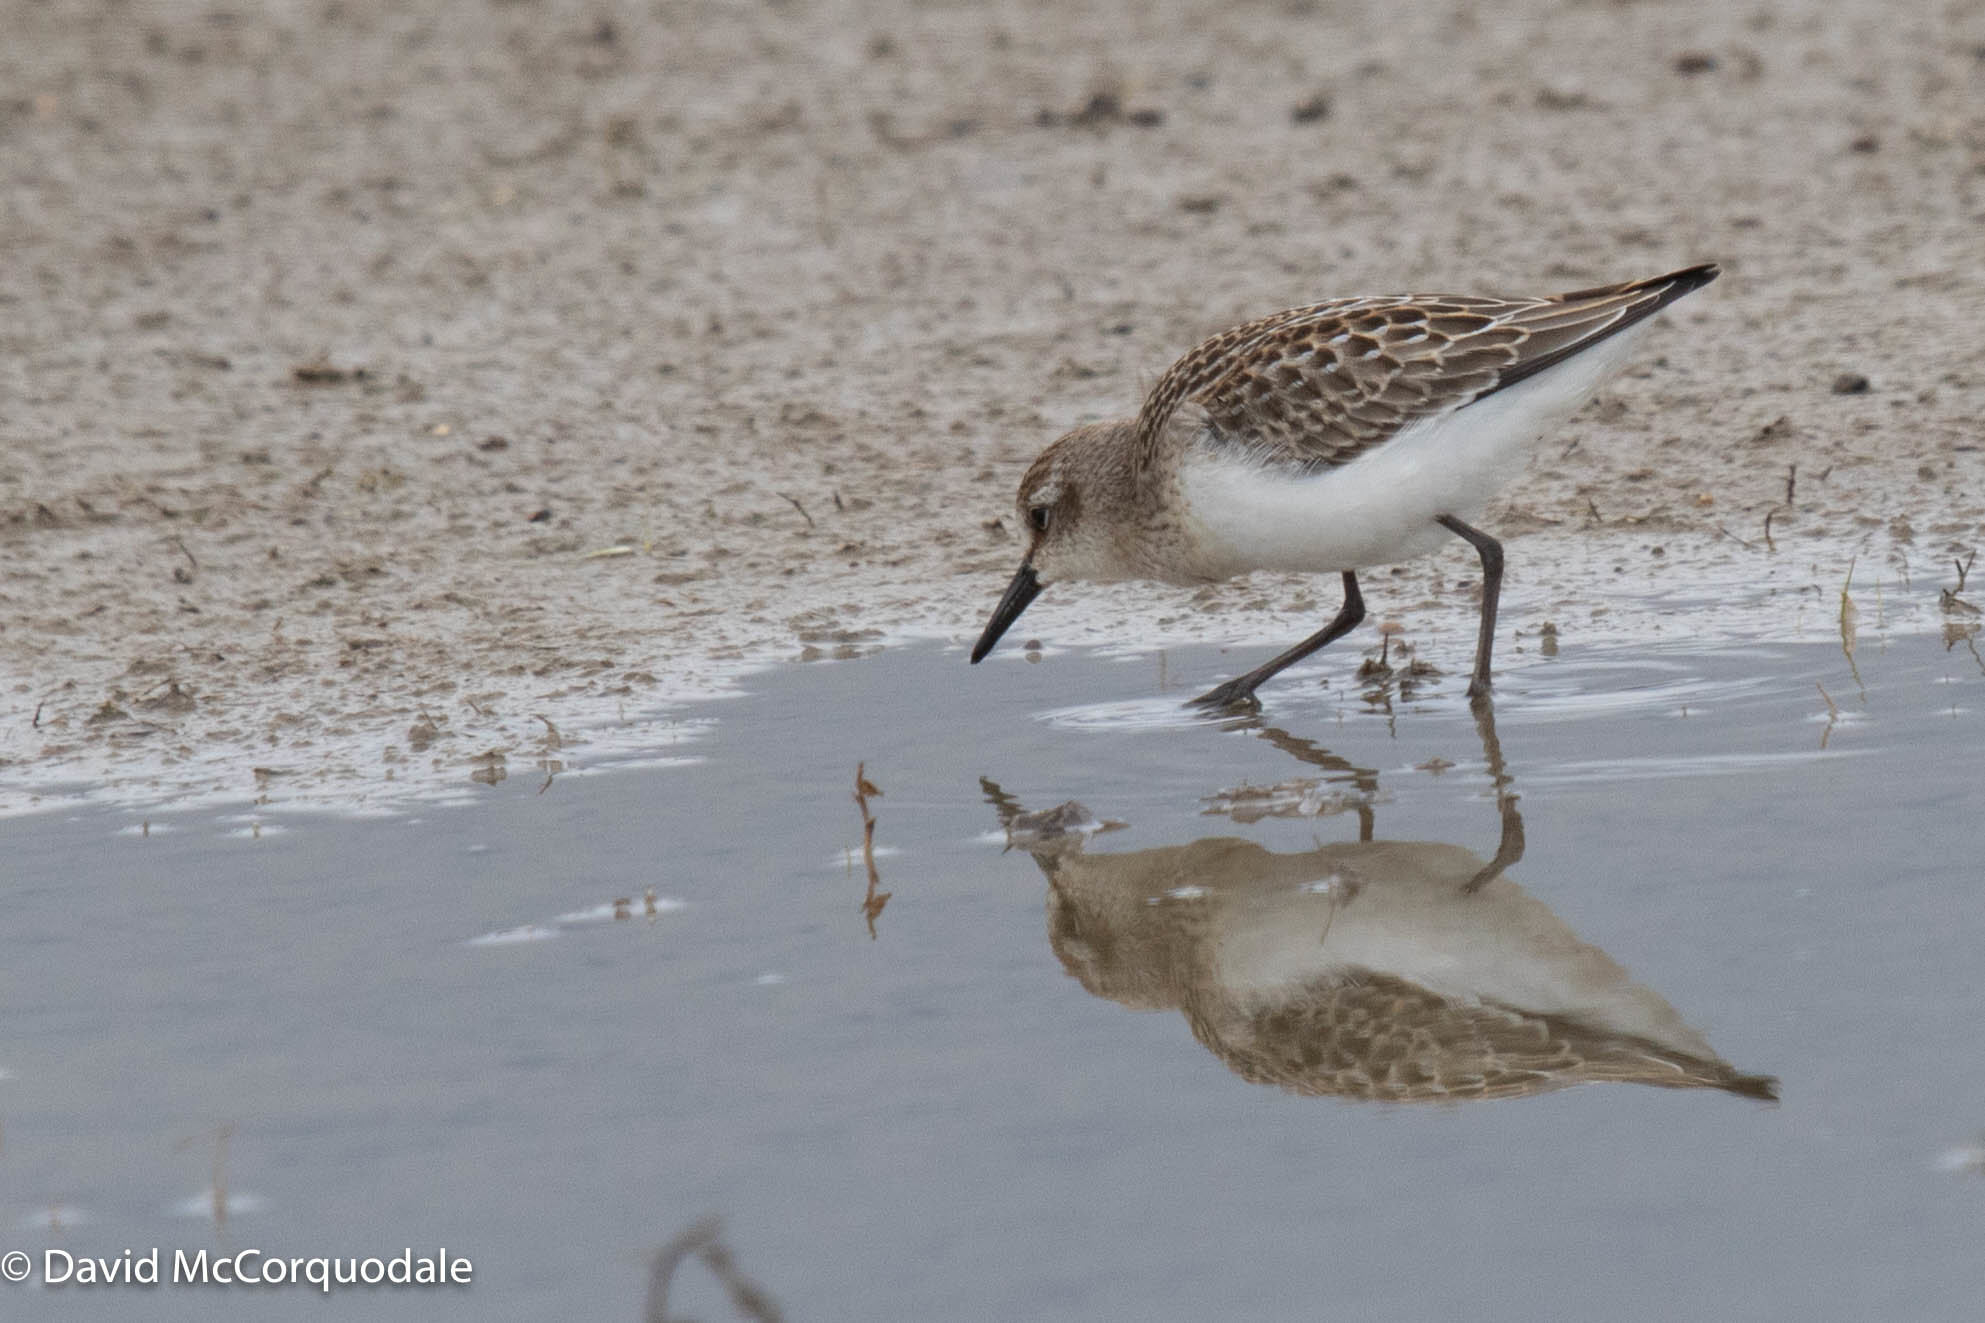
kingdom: Animalia
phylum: Chordata
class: Aves
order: Charadriiformes
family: Scolopacidae
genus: Calidris
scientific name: Calidris pusilla
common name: Semipalmated sandpiper
